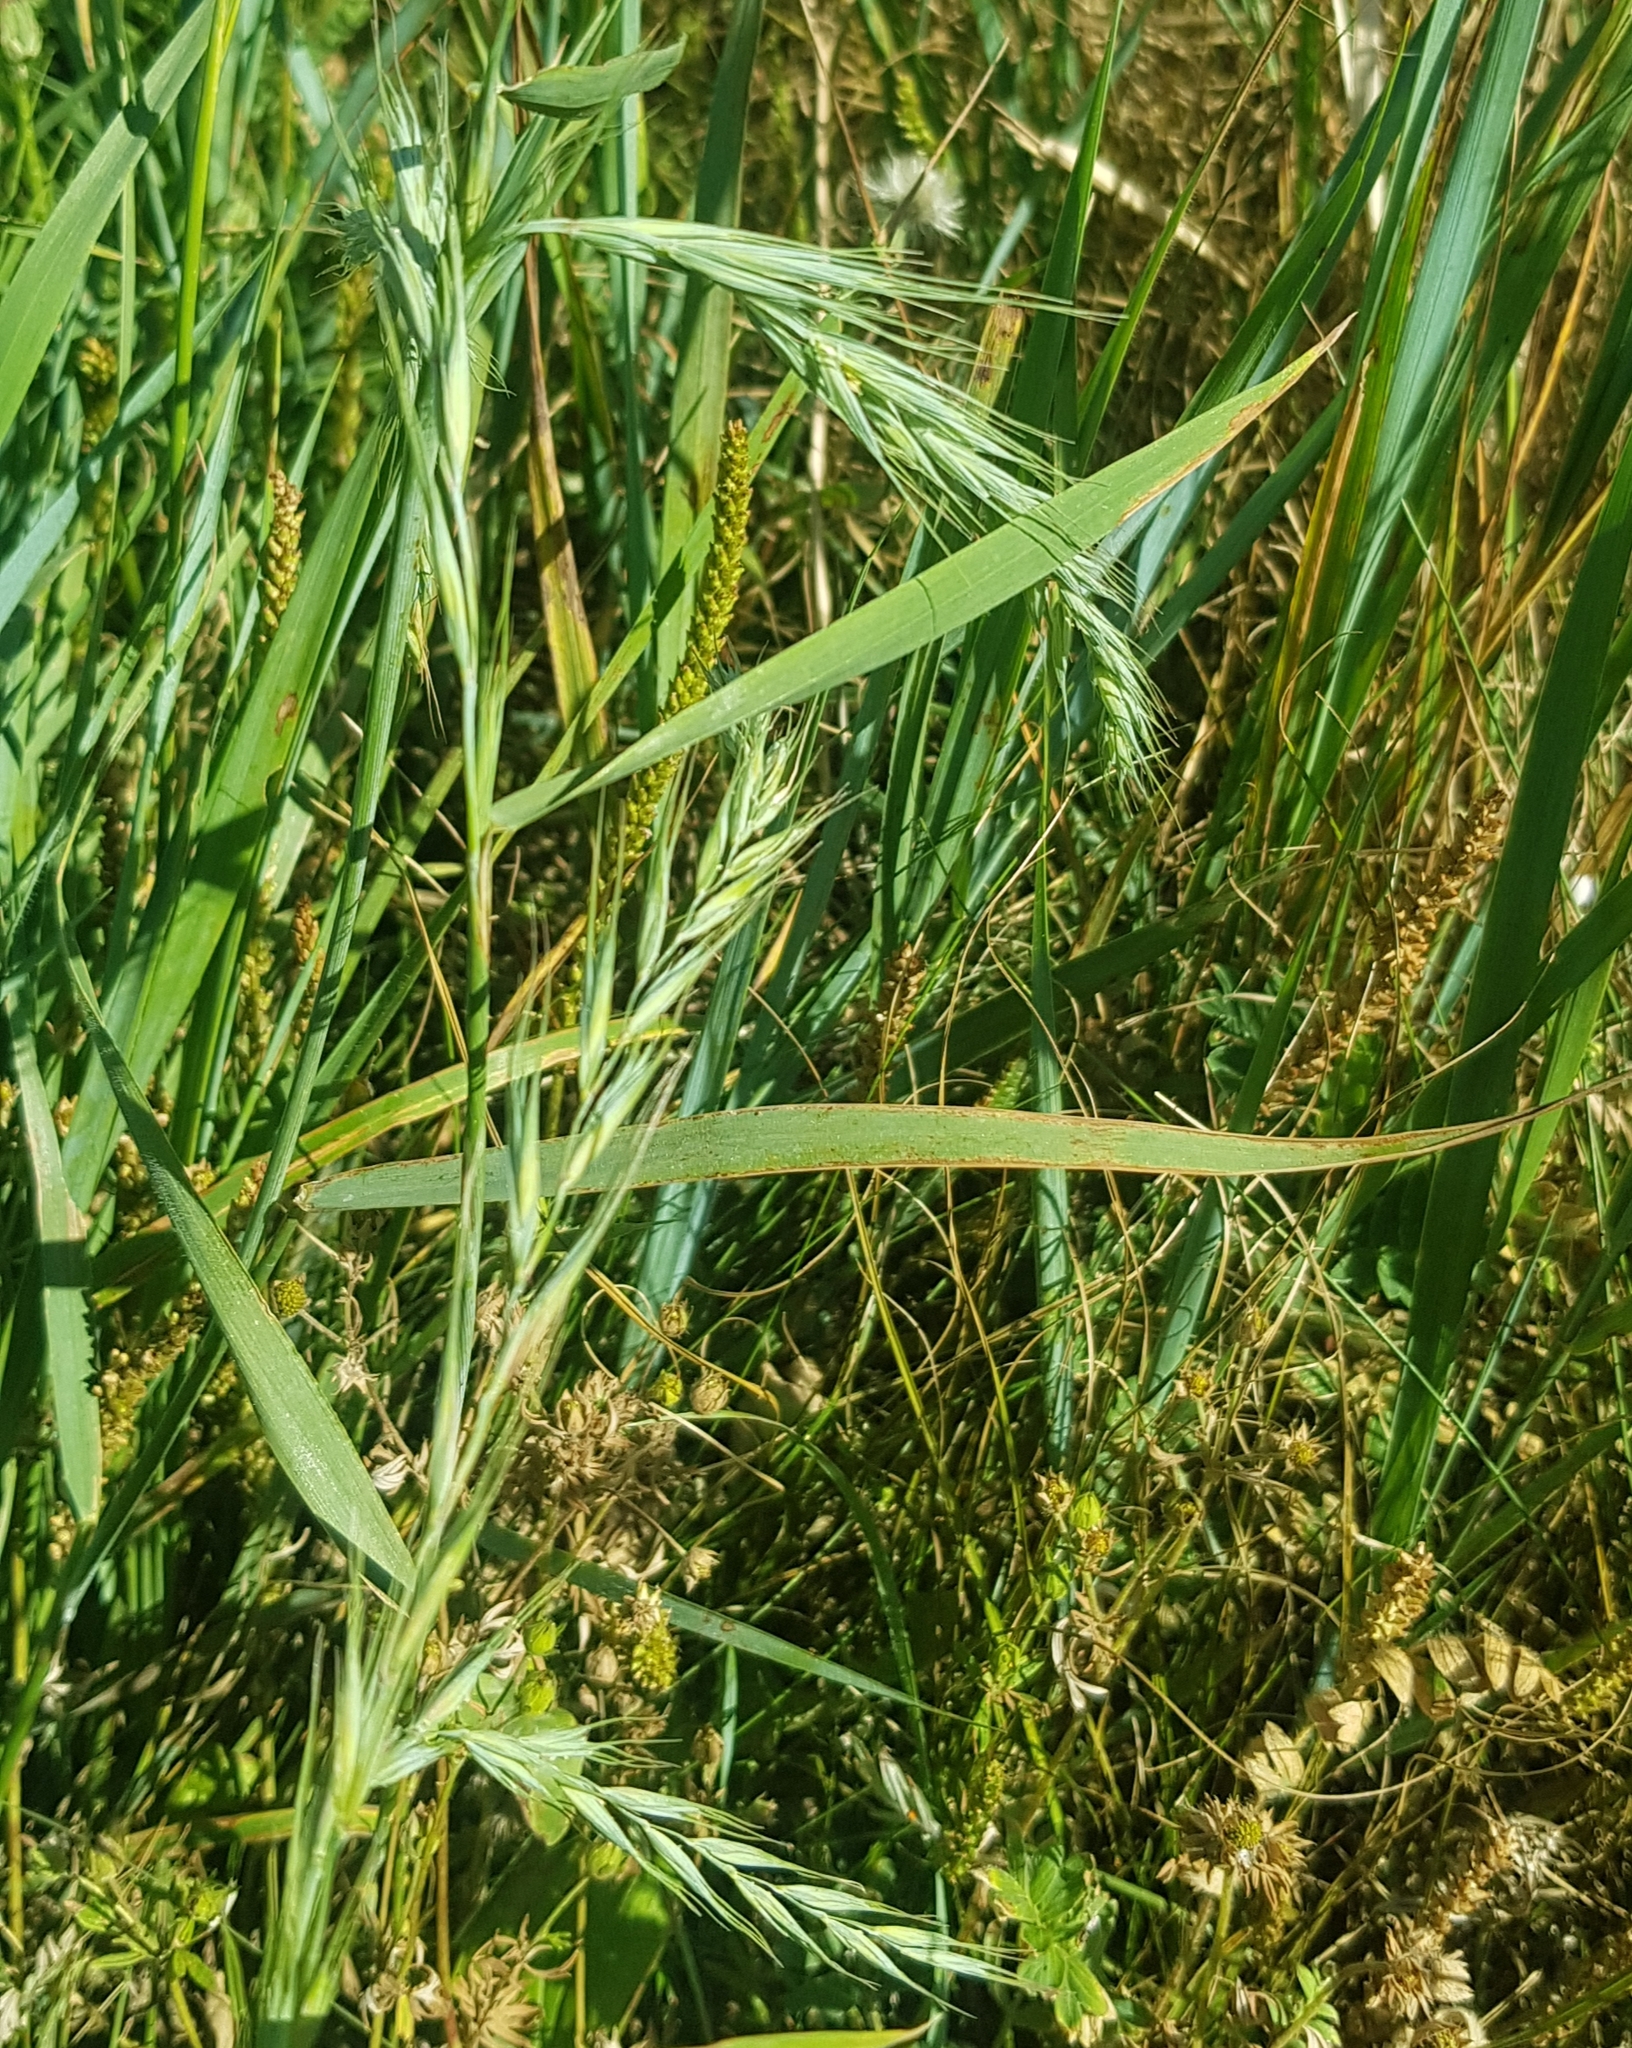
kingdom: Plantae
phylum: Tracheophyta
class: Liliopsida
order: Poales
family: Poaceae
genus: Elymus
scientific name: Elymus sibiricus
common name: Siberian wildrye
